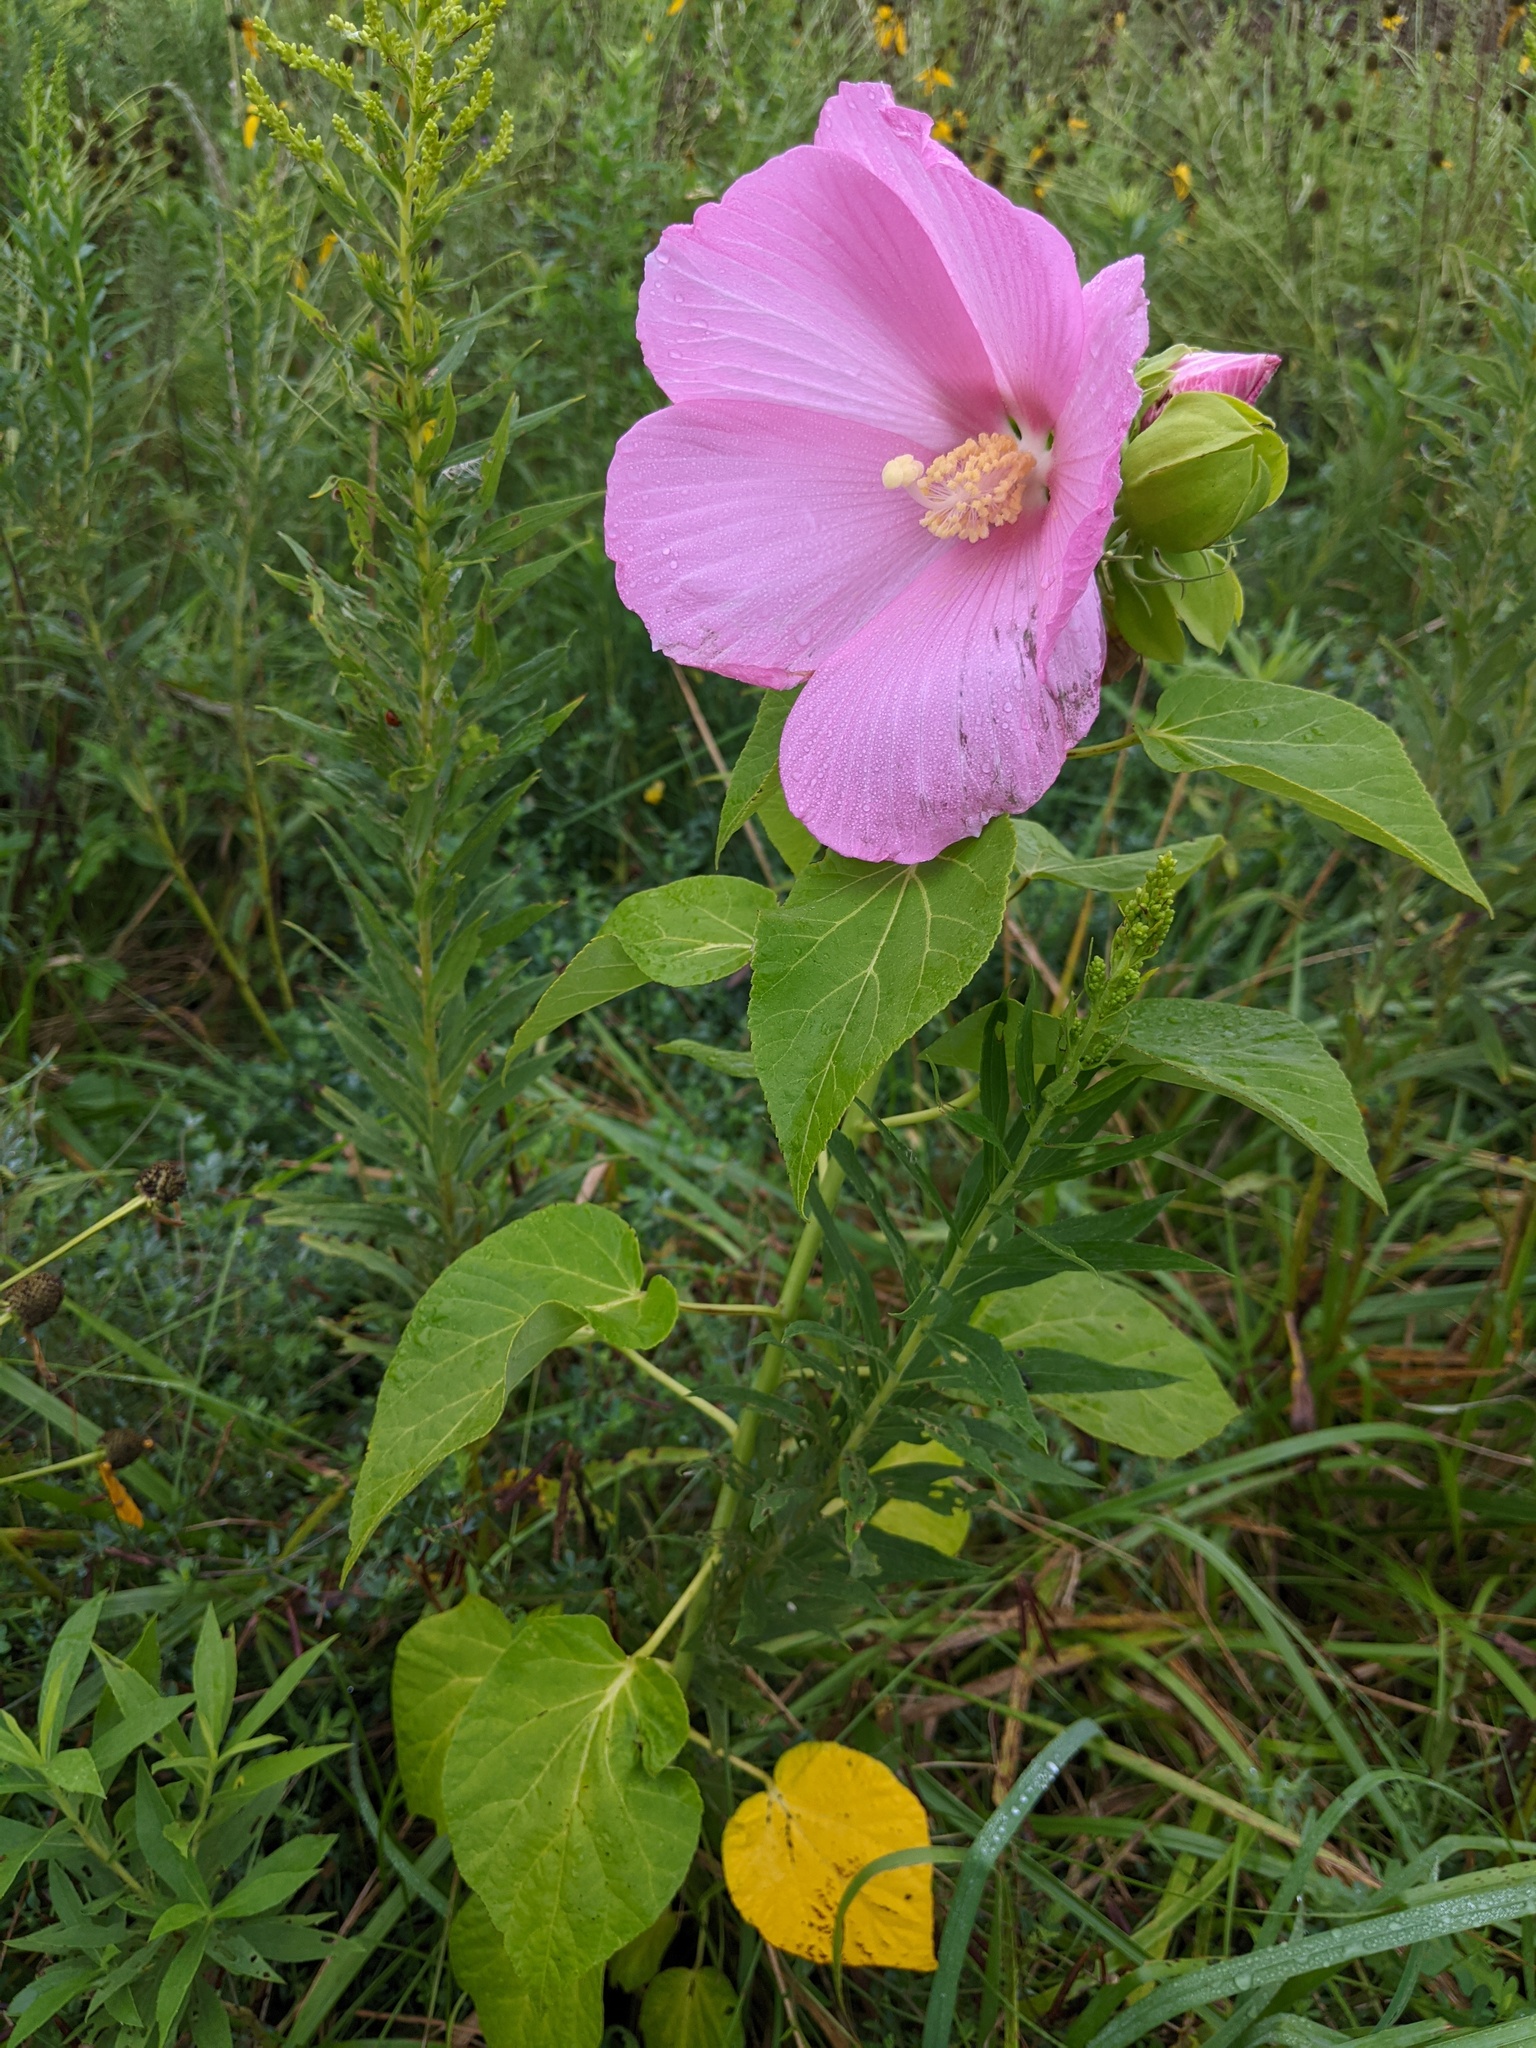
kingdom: Plantae
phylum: Tracheophyta
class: Magnoliopsida
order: Malvales
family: Malvaceae
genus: Hibiscus
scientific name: Hibiscus moscheutos
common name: Common rose-mallow
